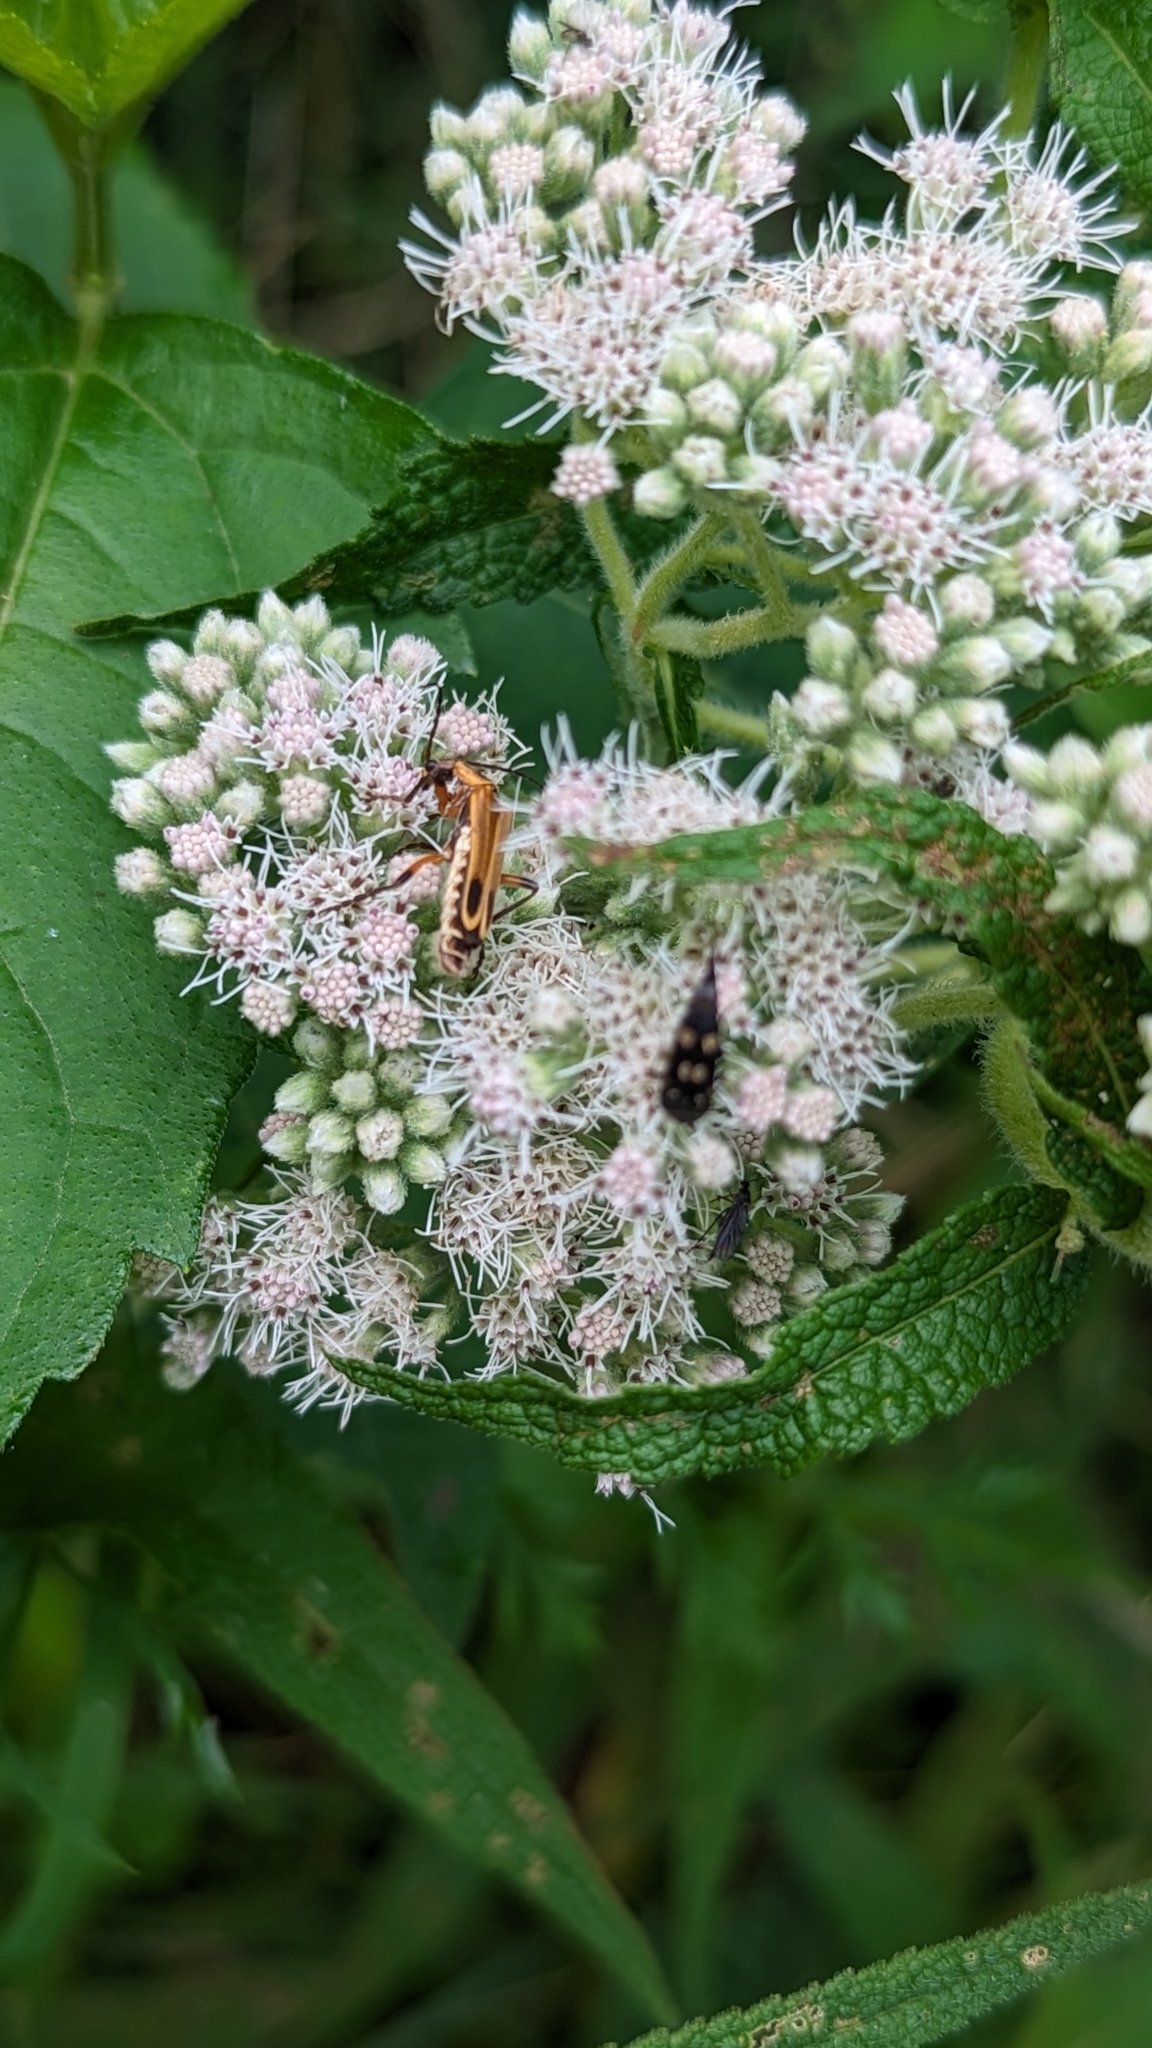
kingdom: Animalia
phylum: Arthropoda
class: Insecta
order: Coleoptera
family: Cantharidae
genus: Chauliognathus
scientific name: Chauliognathus marginatus
